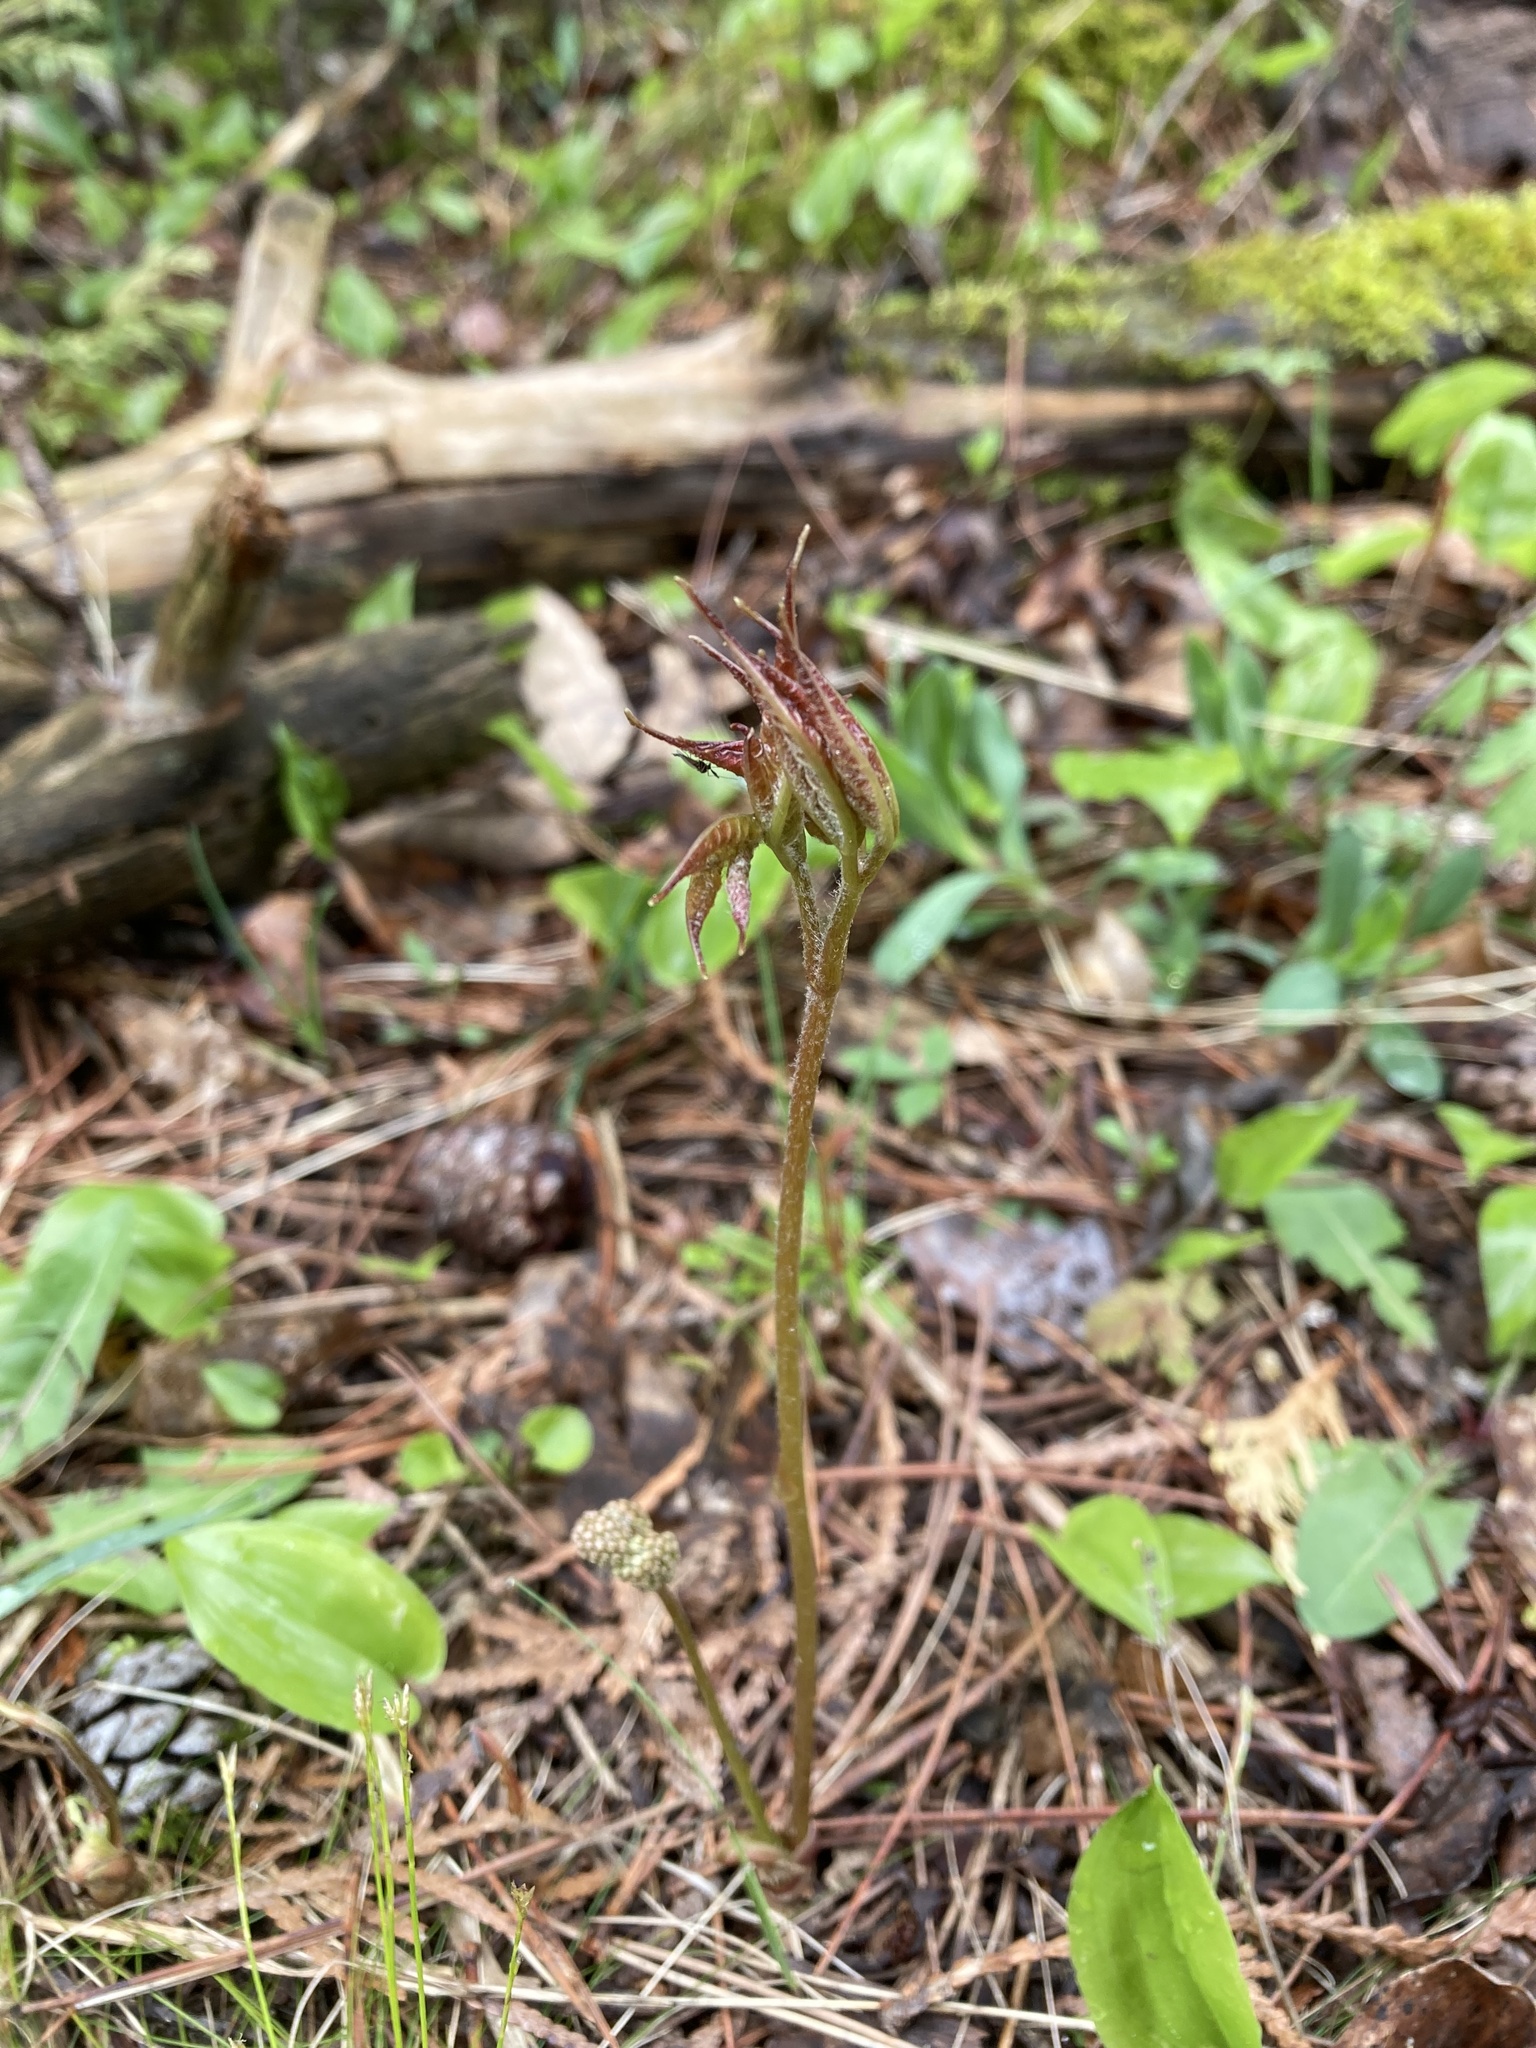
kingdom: Plantae
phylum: Tracheophyta
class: Magnoliopsida
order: Apiales
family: Araliaceae
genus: Aralia
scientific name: Aralia nudicaulis
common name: Wild sarsaparilla
